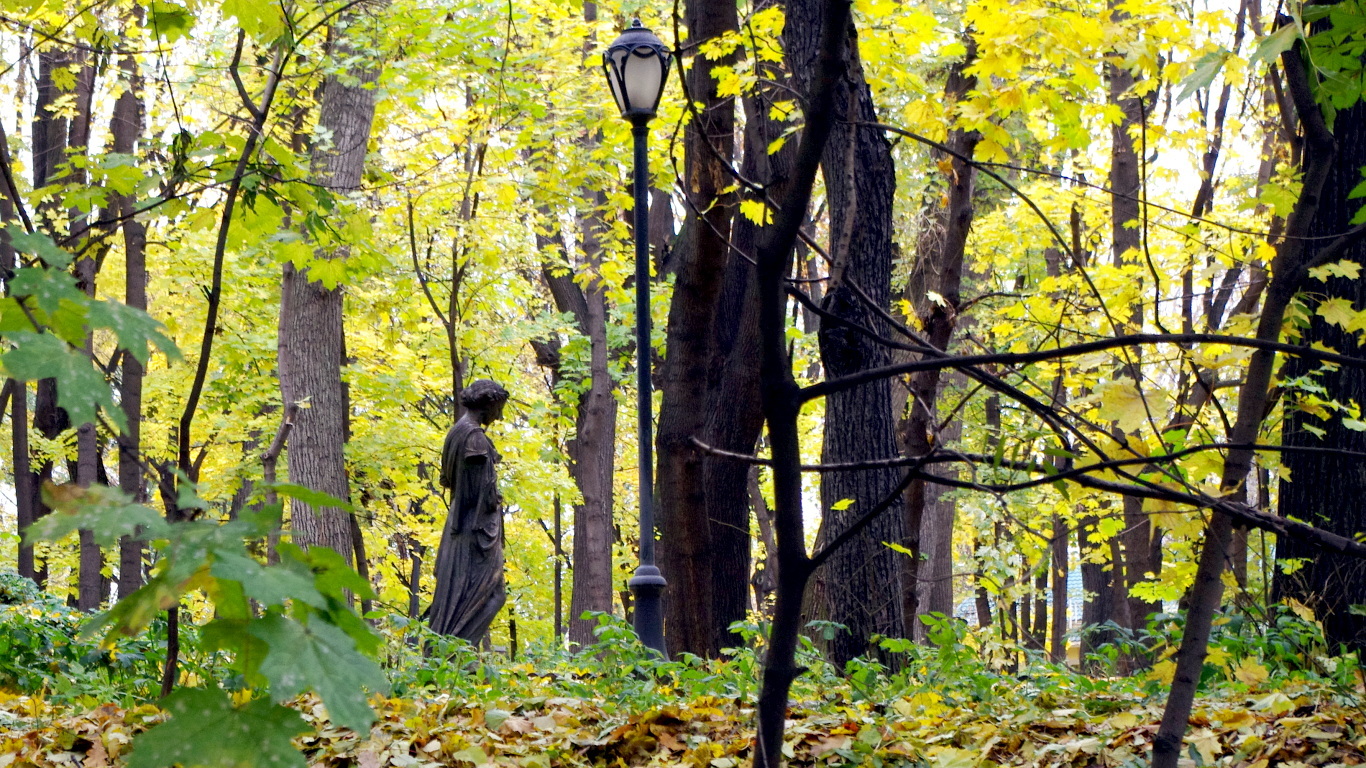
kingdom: Plantae
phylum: Tracheophyta
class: Magnoliopsida
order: Sapindales
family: Sapindaceae
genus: Acer
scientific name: Acer platanoides
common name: Norway maple
